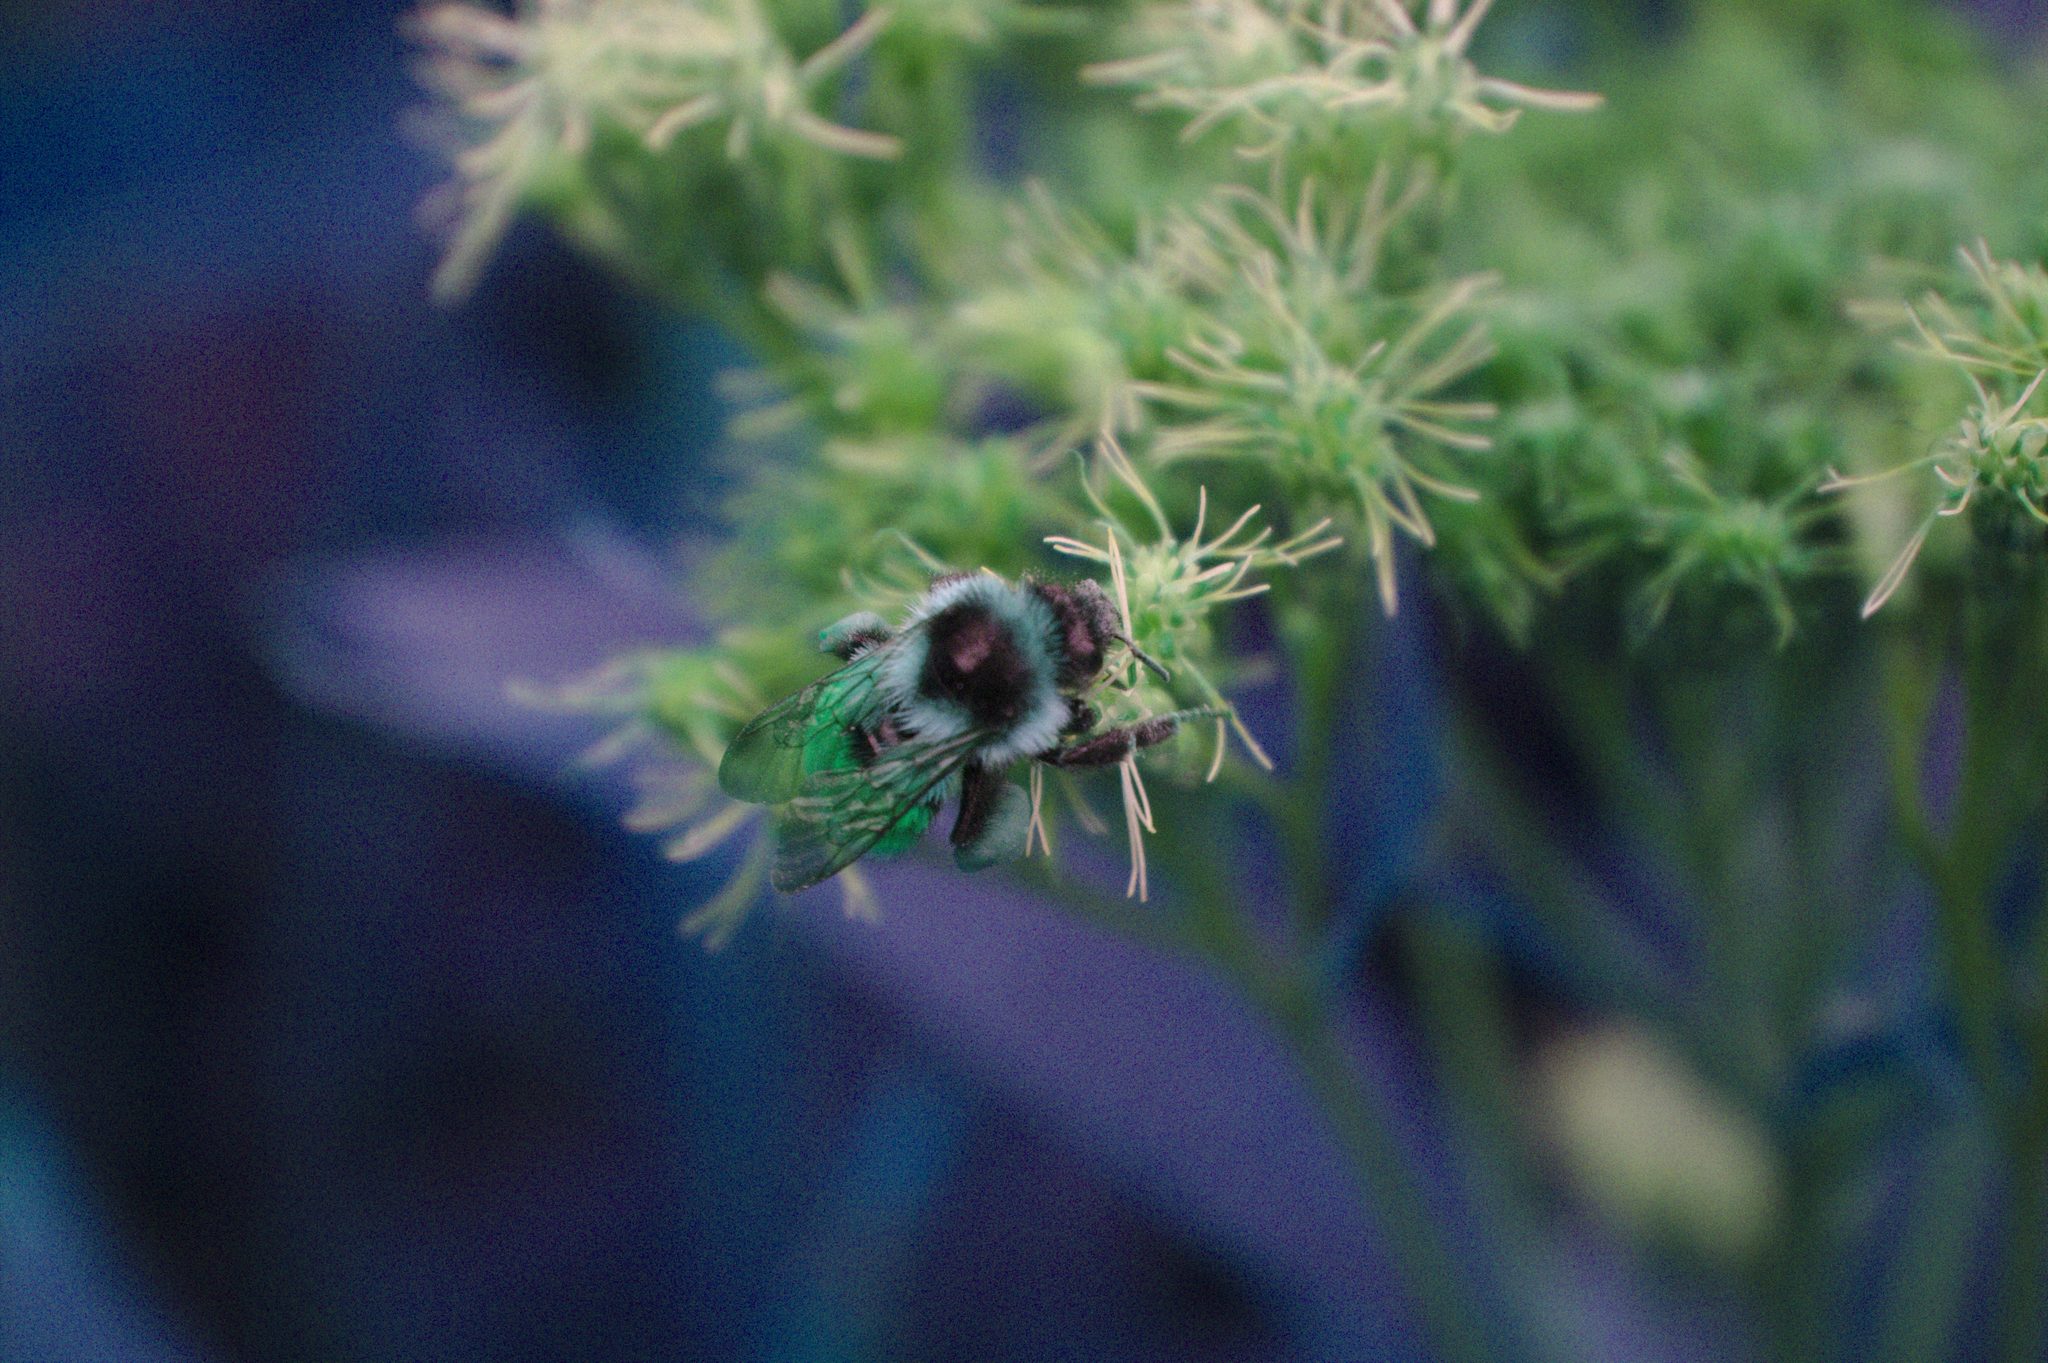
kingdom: Animalia
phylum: Arthropoda
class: Insecta
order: Hymenoptera
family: Apidae
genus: Bombus
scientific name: Bombus ternarius
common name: Tri-colored bumble bee
